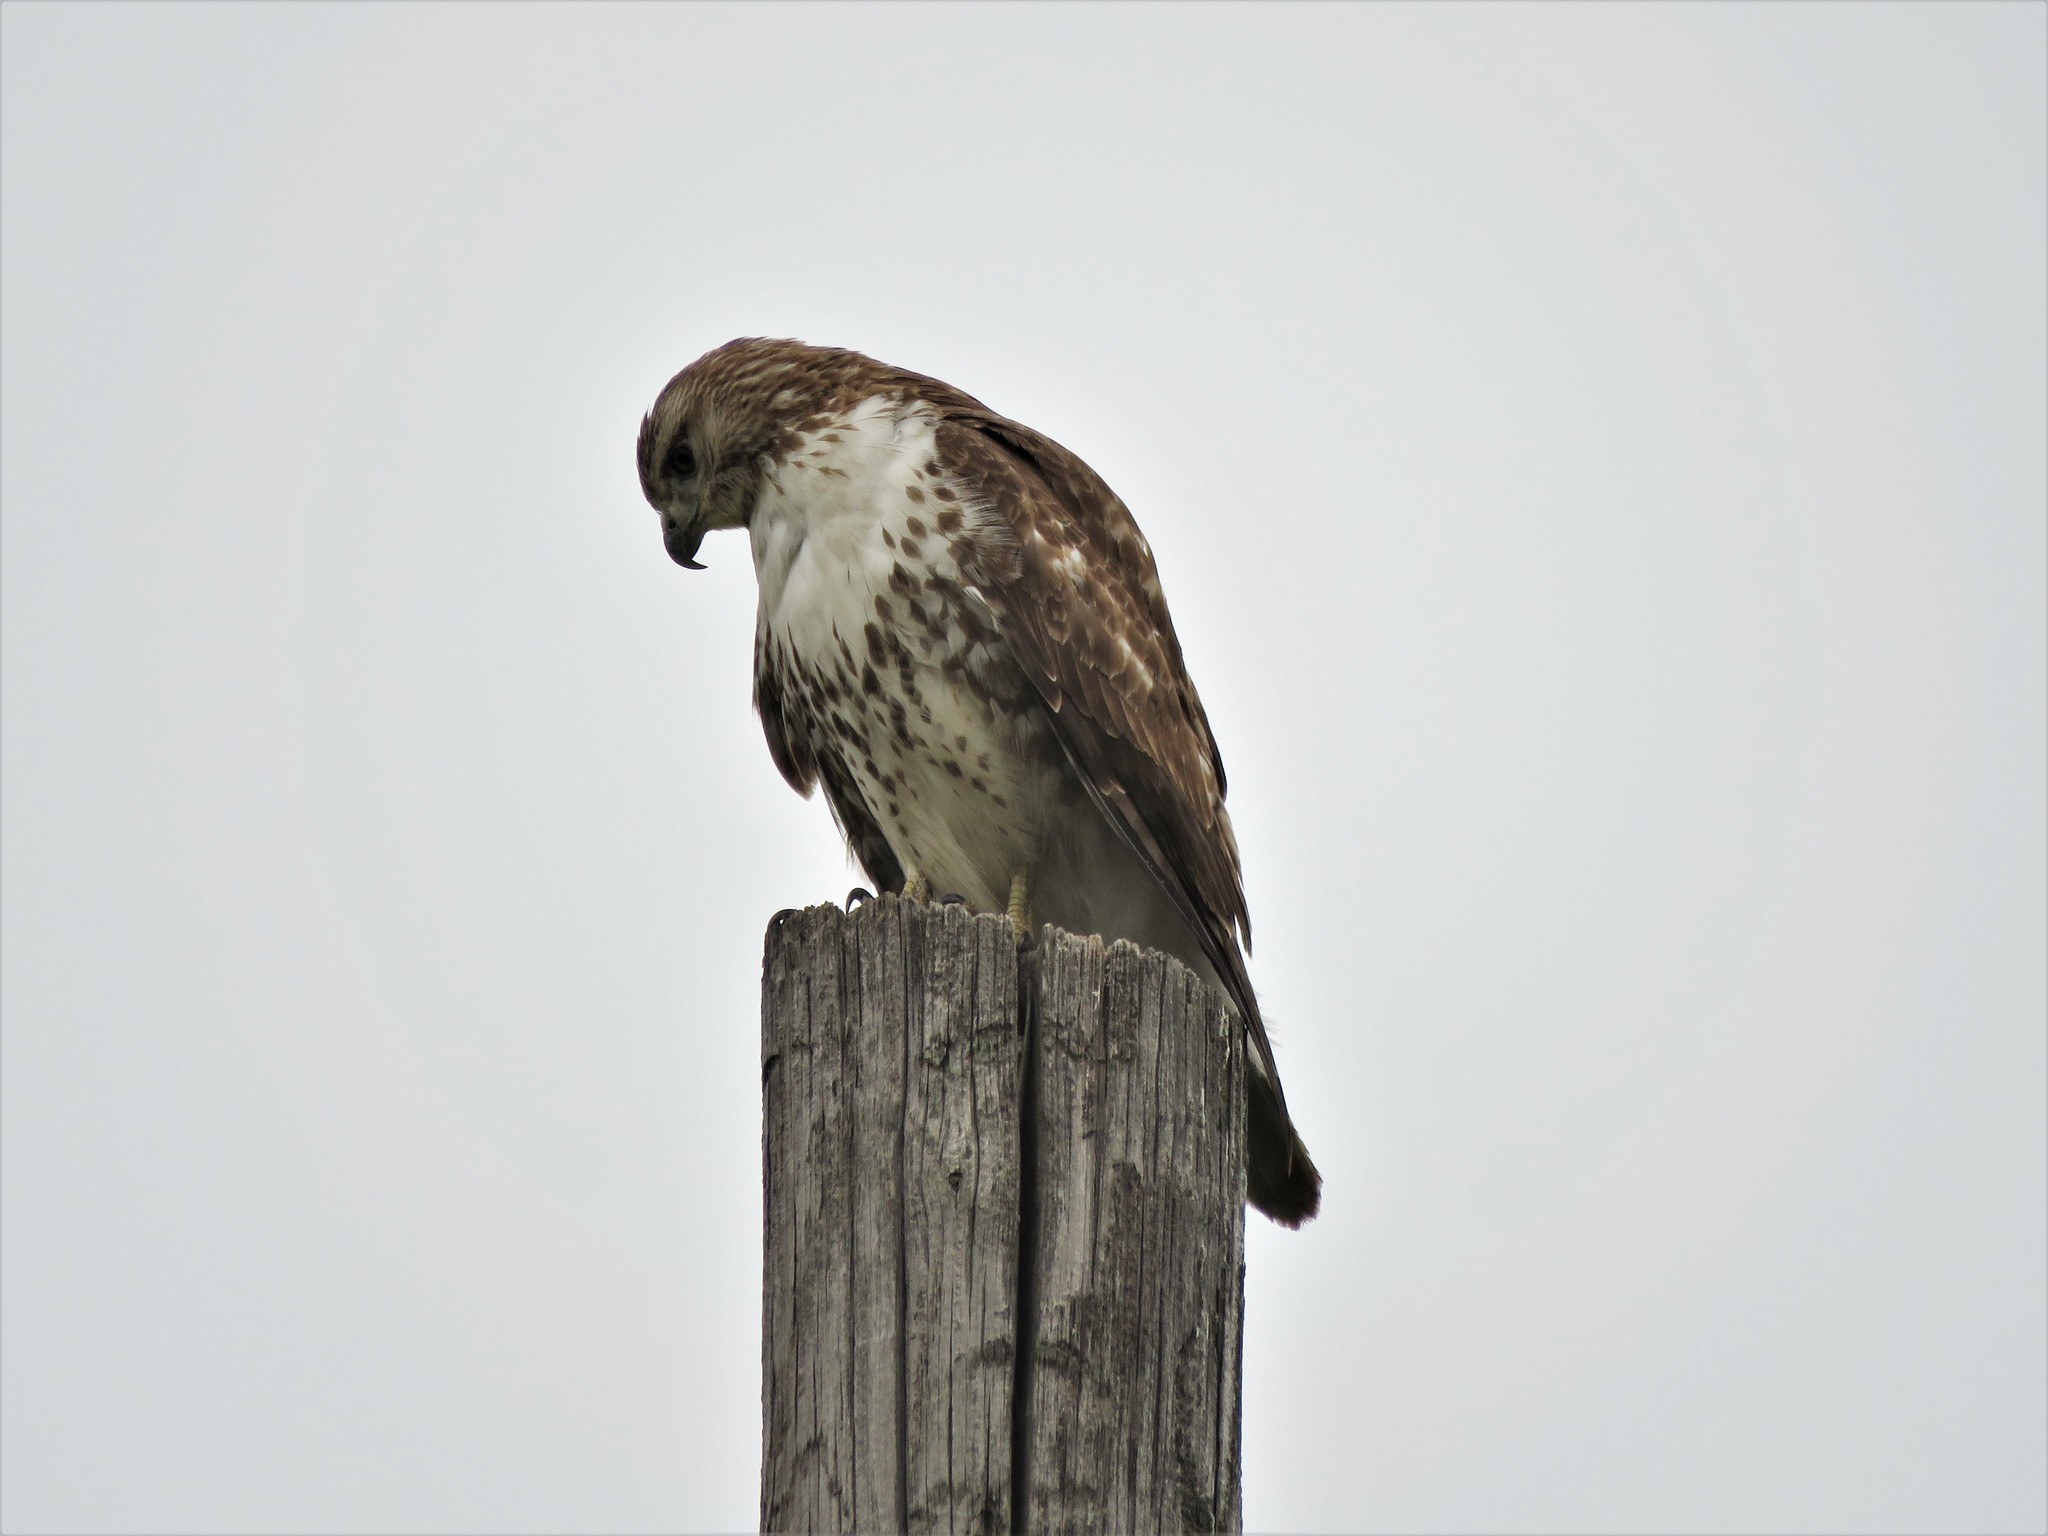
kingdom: Animalia
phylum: Chordata
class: Aves
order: Accipitriformes
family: Accipitridae
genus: Buteo
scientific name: Buteo jamaicensis
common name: Red-tailed hawk
